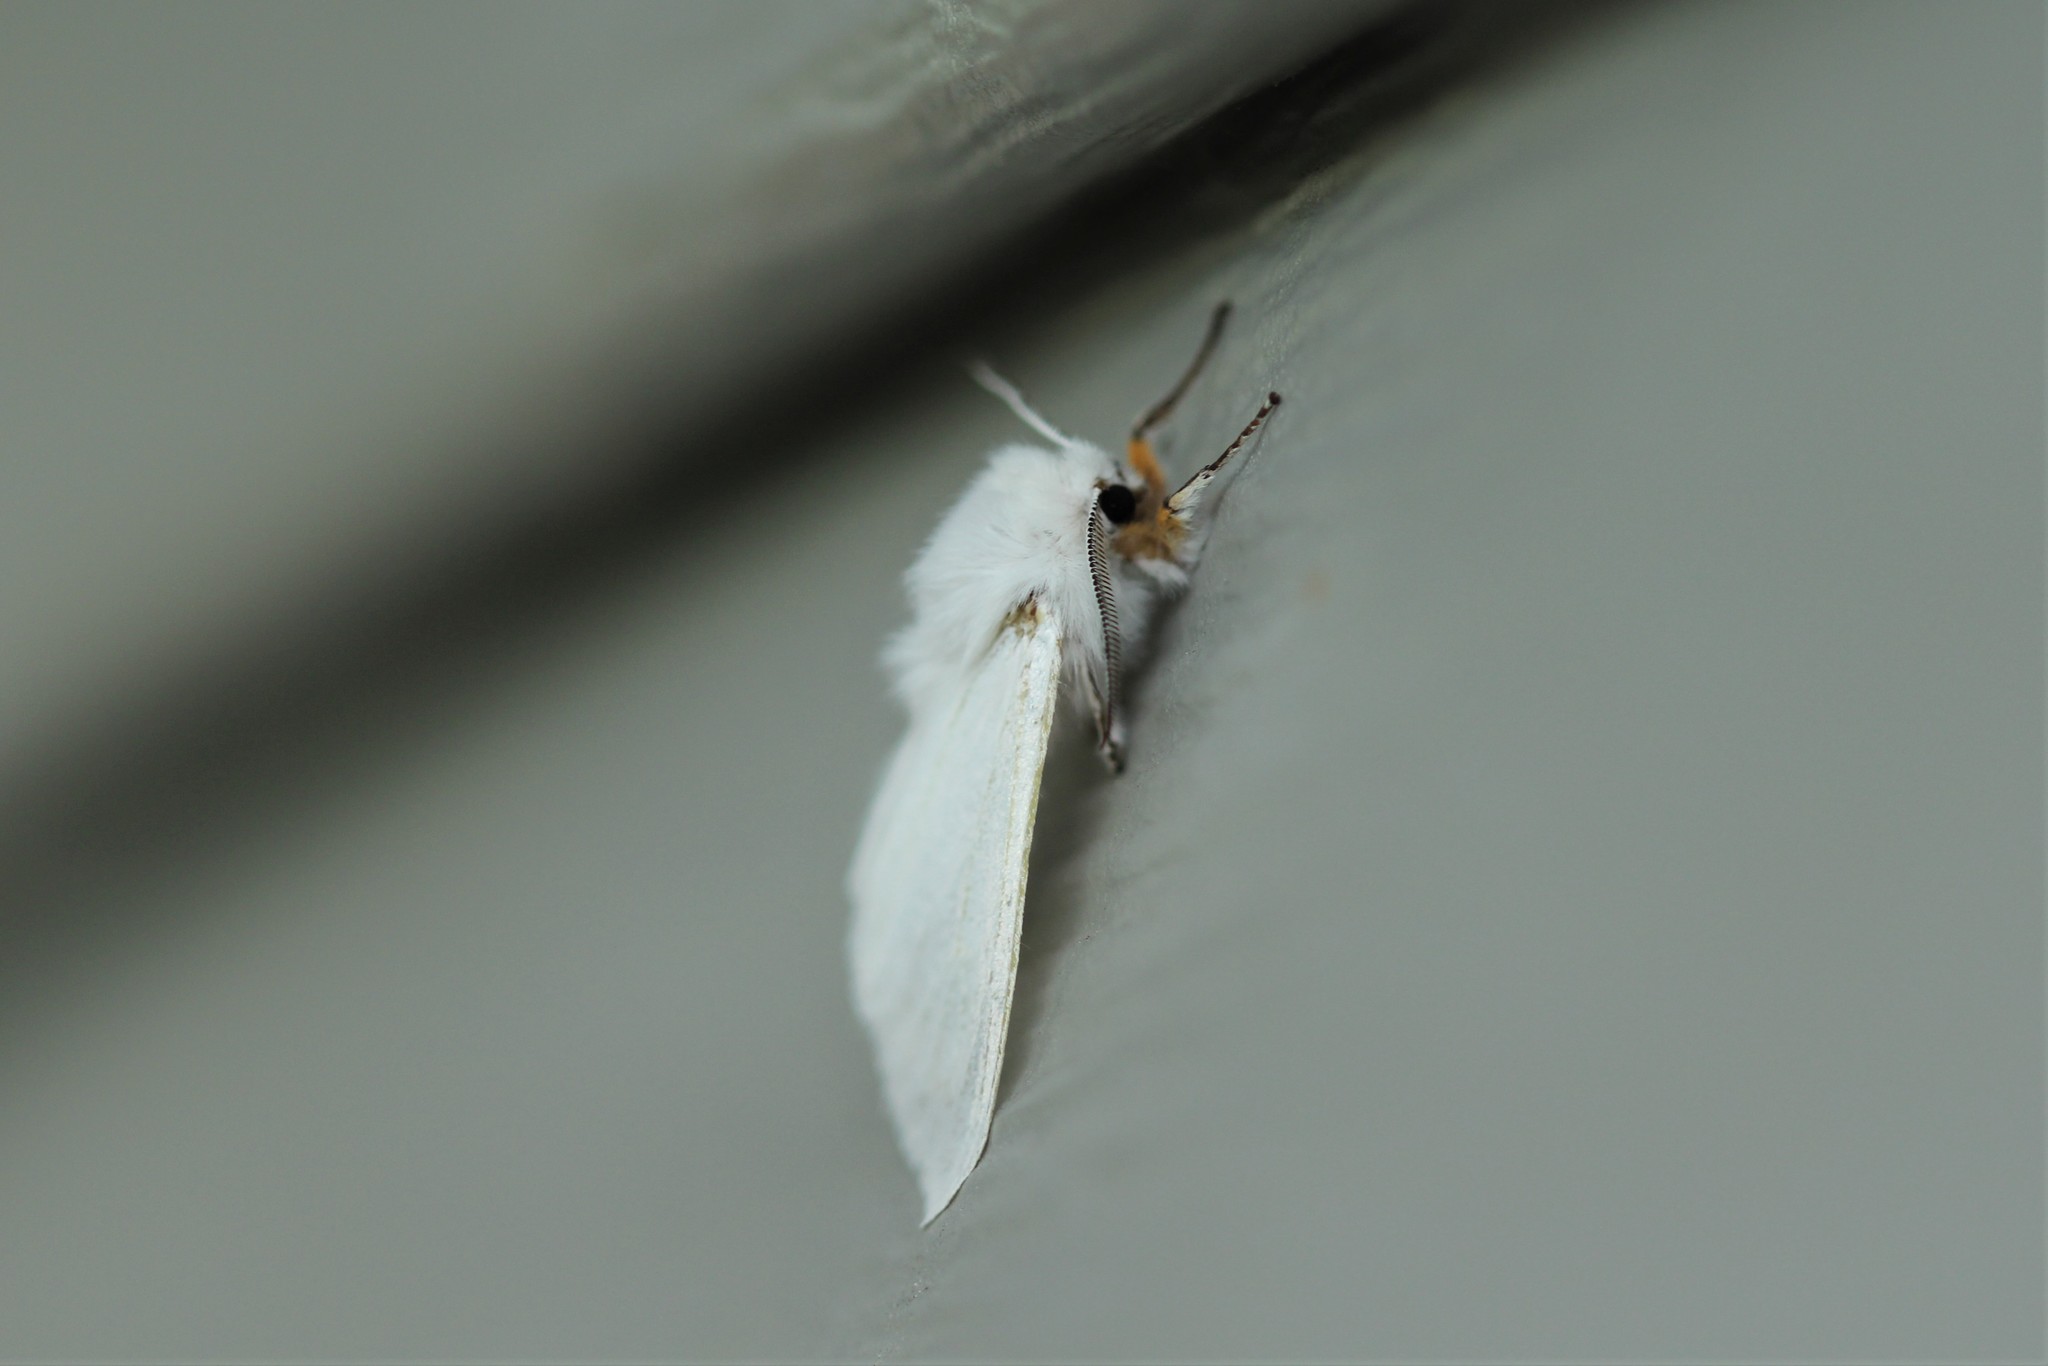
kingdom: Animalia
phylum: Arthropoda
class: Insecta
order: Lepidoptera
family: Erebidae
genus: Hyphantria
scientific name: Hyphantria cunea
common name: American white moth
